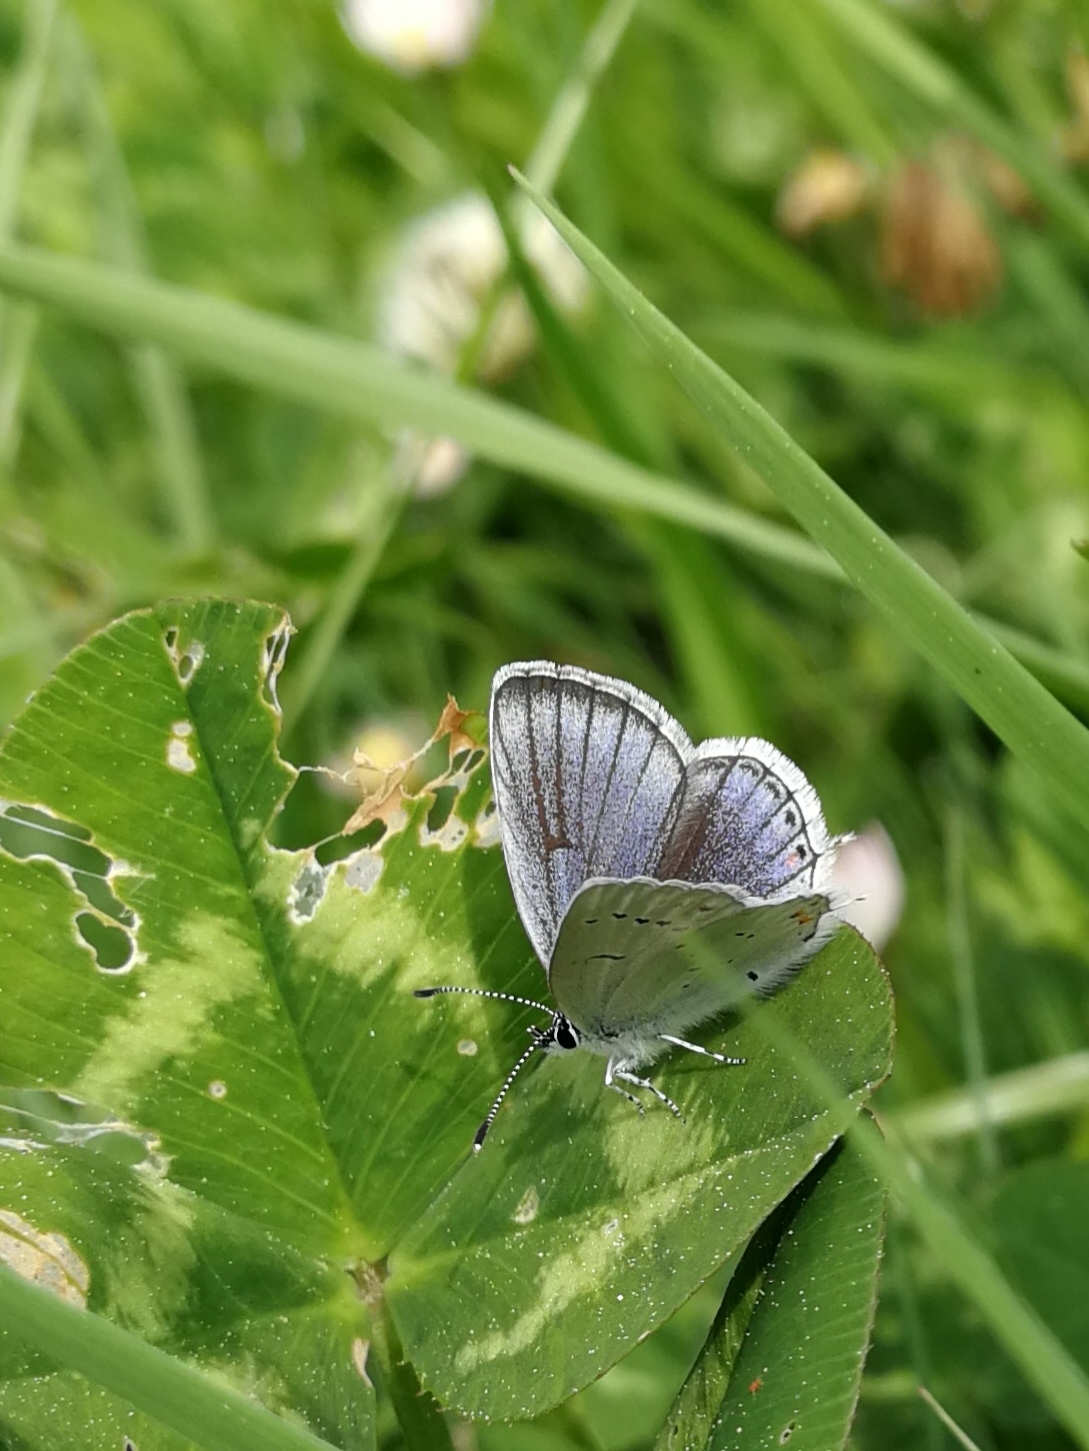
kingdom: Animalia
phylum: Arthropoda
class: Insecta
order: Lepidoptera
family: Lycaenidae
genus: Elkalyce
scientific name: Elkalyce argiades
